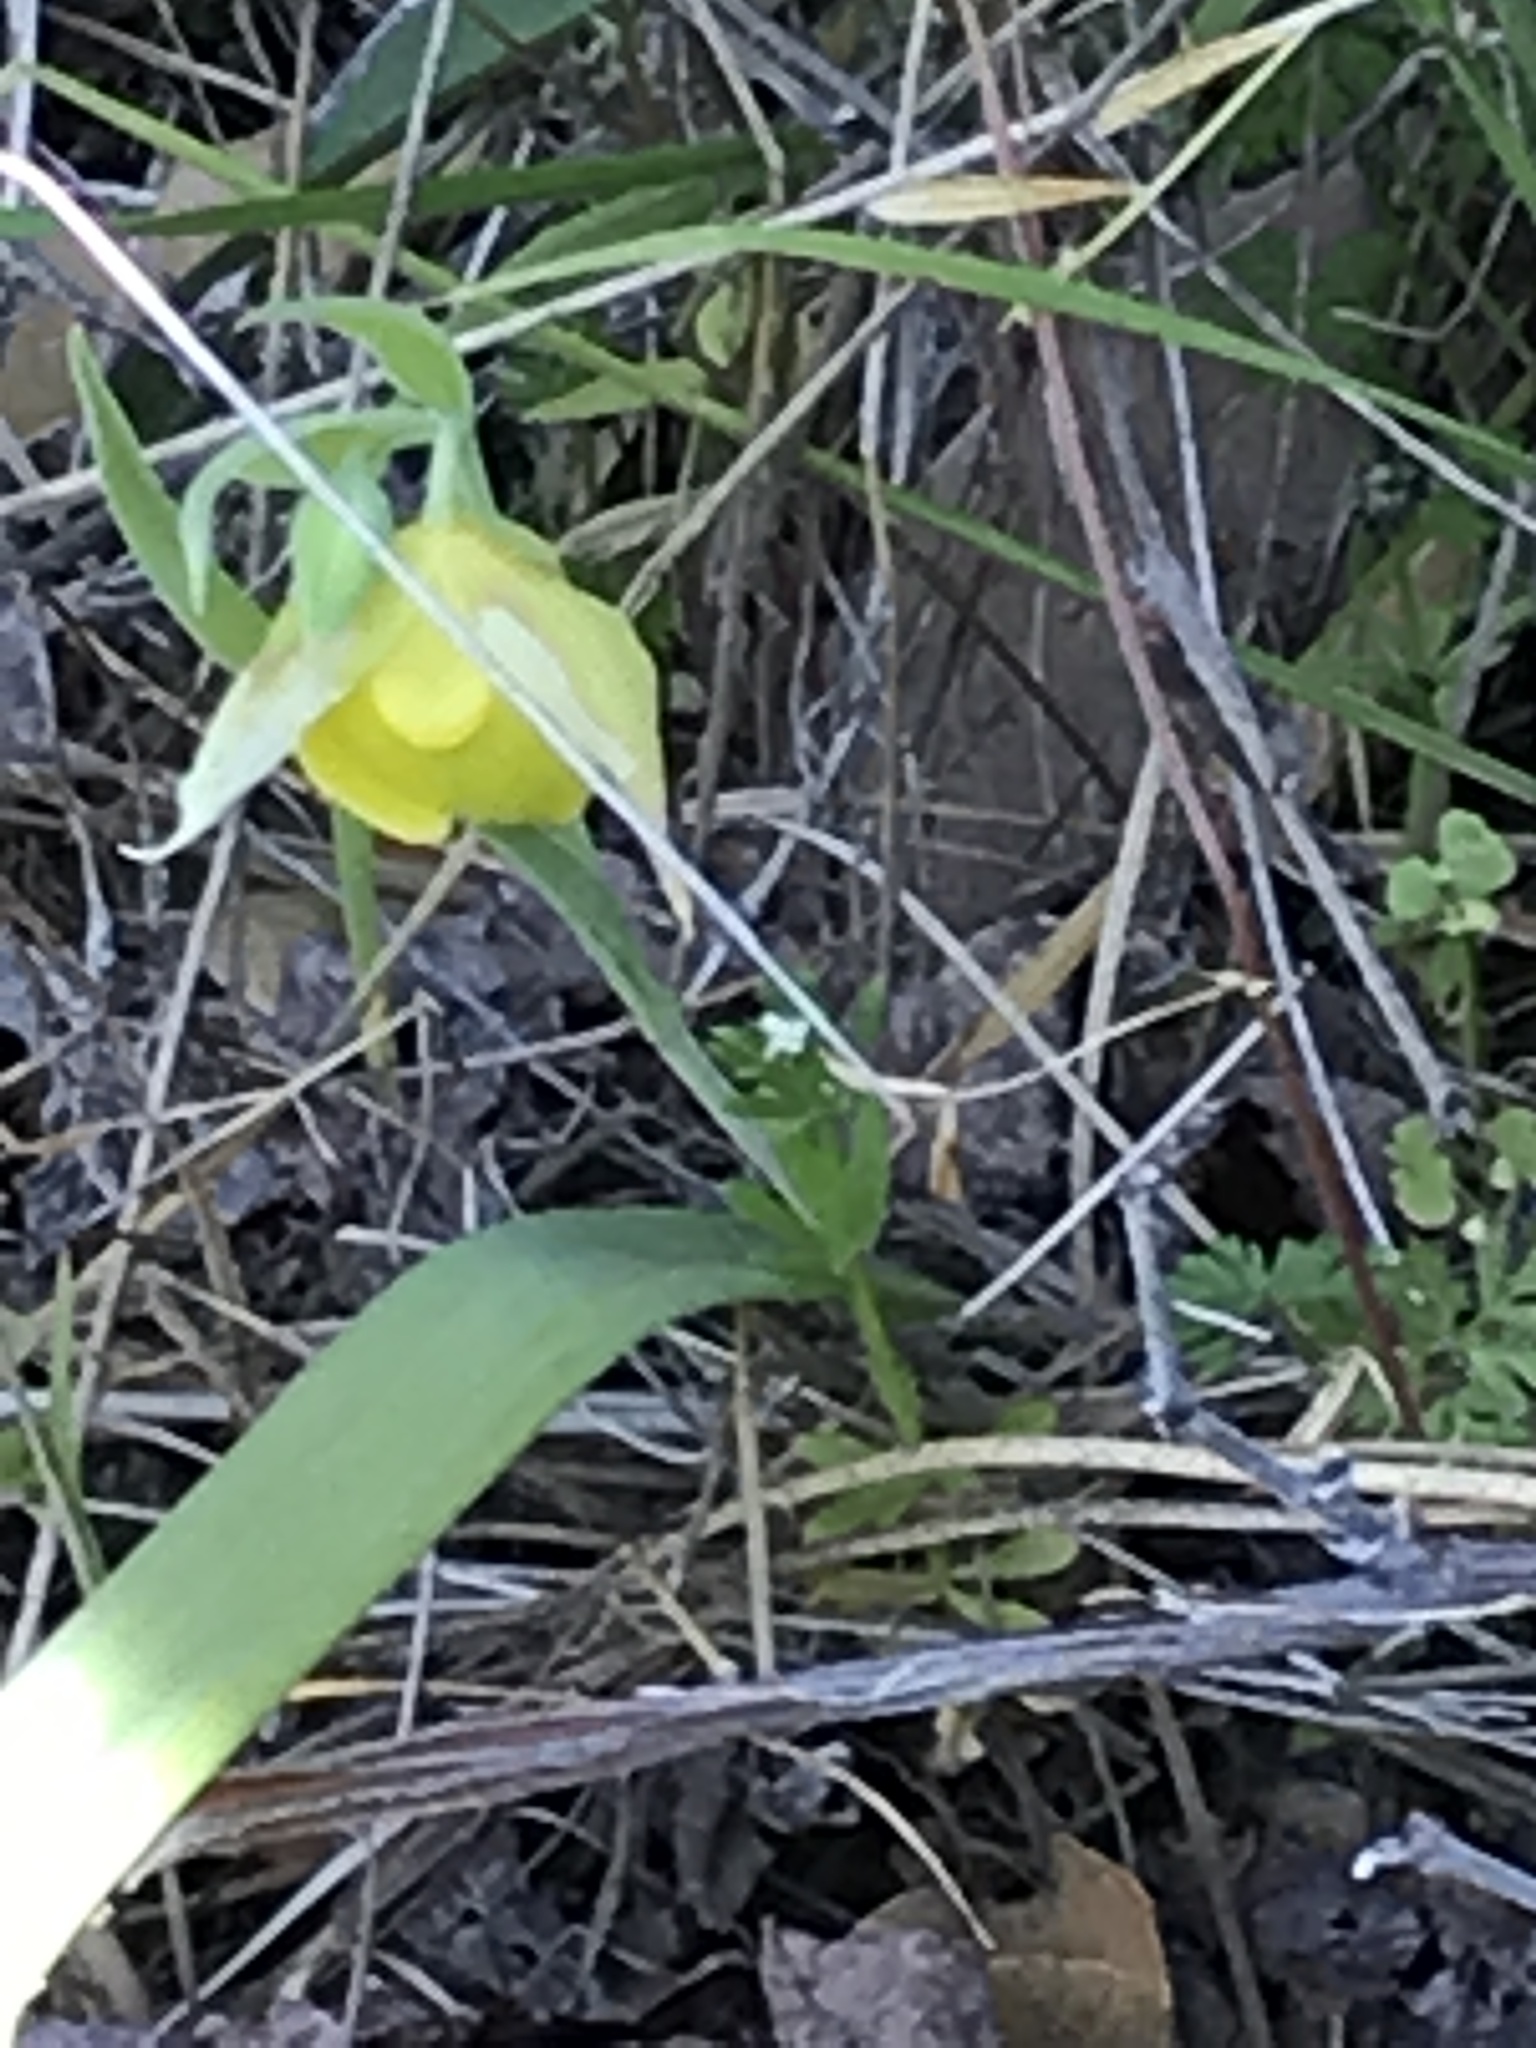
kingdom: Plantae
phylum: Tracheophyta
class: Liliopsida
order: Liliales
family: Liliaceae
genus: Calochortus
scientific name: Calochortus pulchellus
